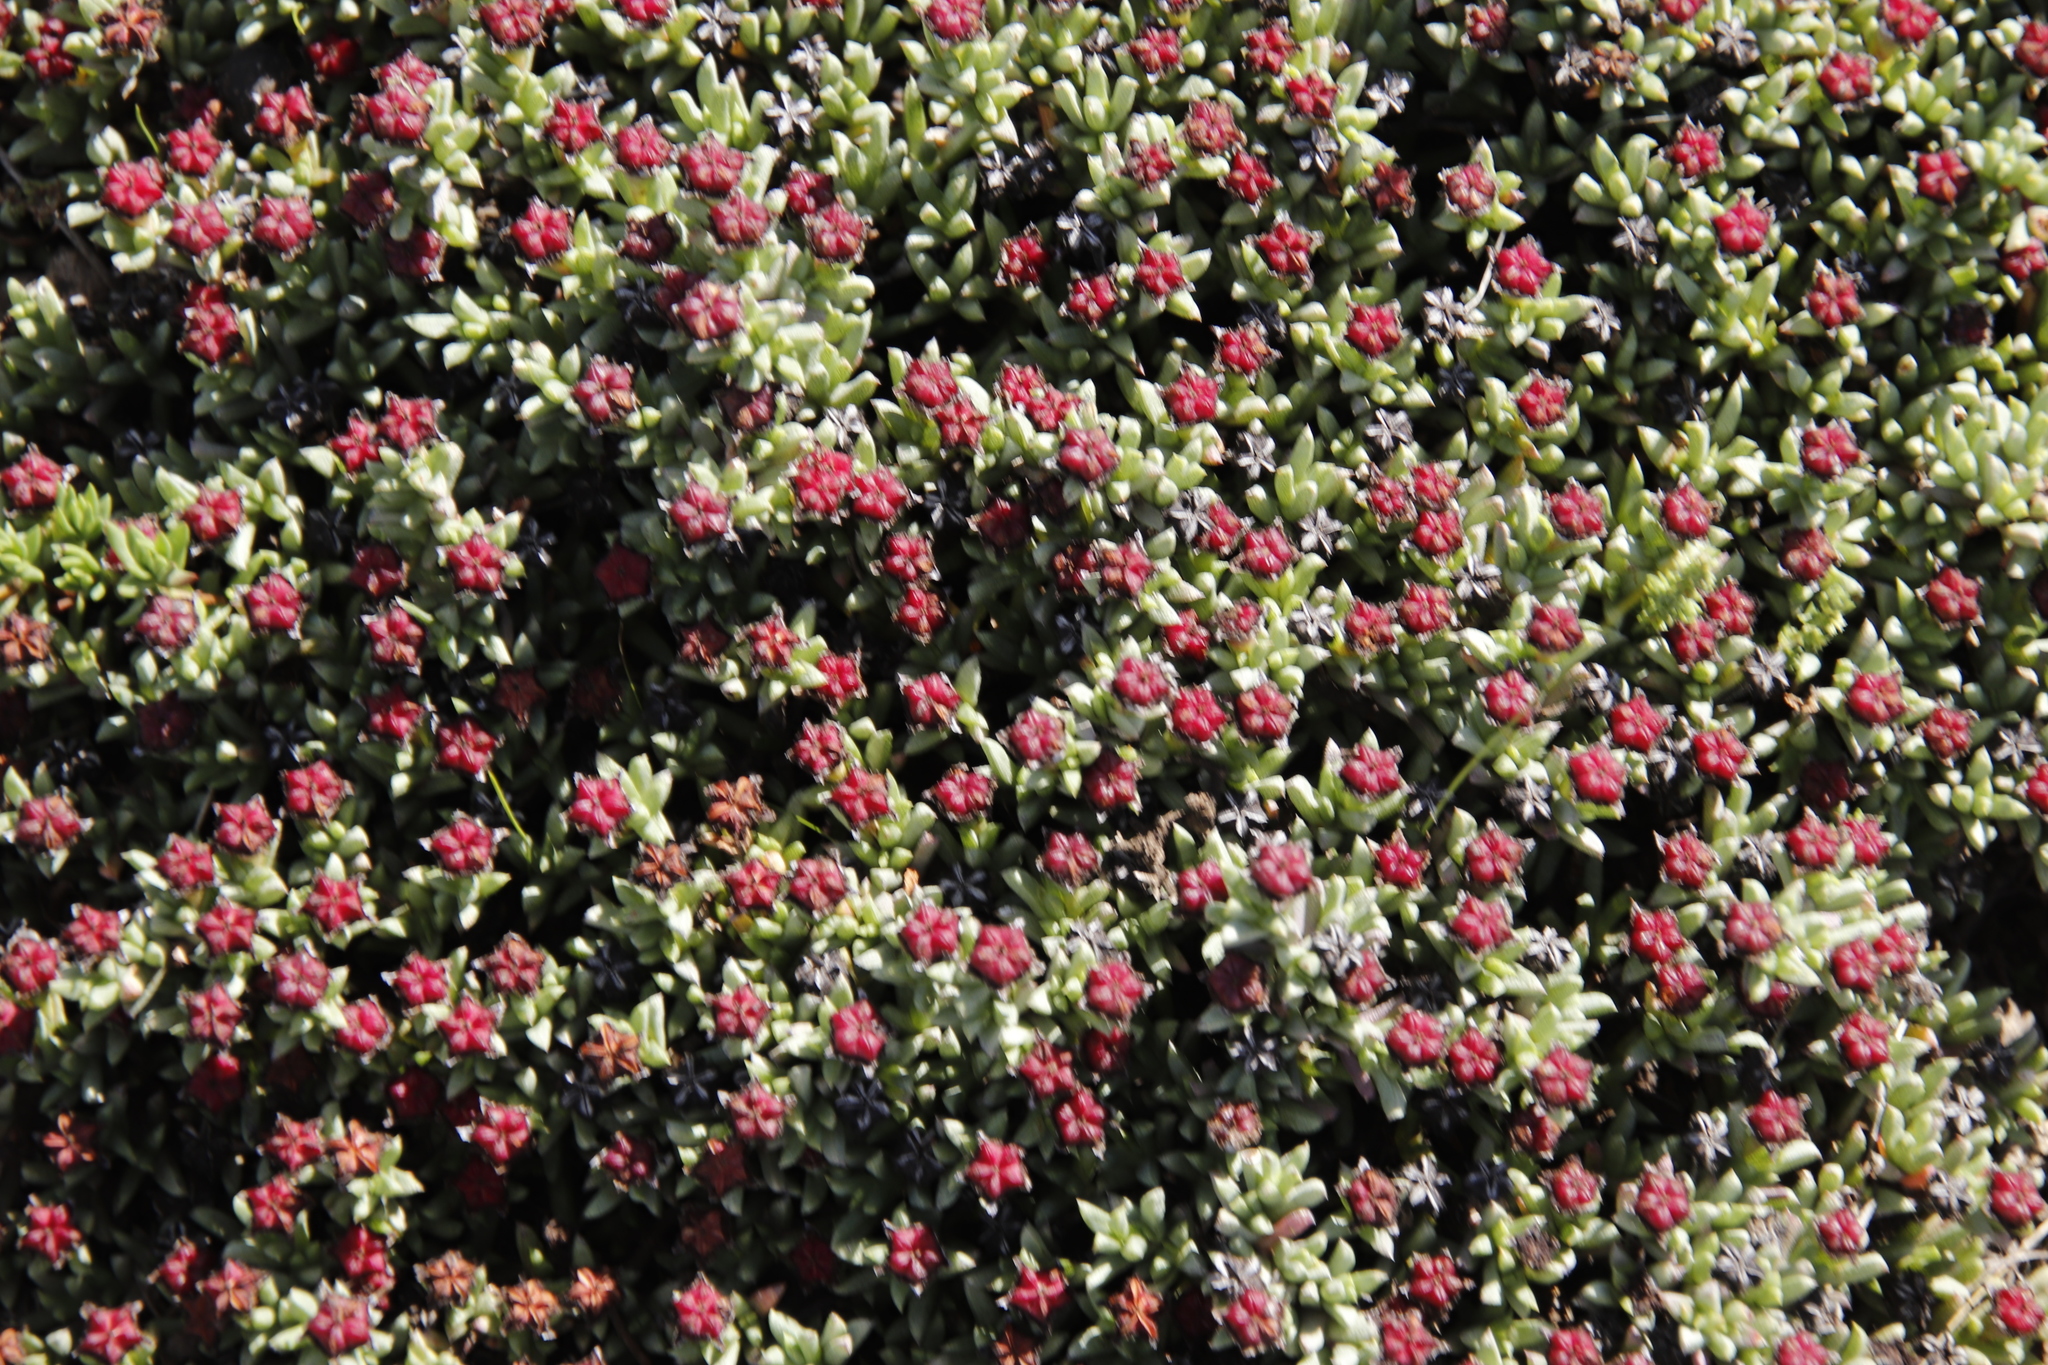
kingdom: Plantae
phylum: Tracheophyta
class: Magnoliopsida
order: Caryophyllales
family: Aizoaceae
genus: Ruschia
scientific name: Ruschia putterillii
